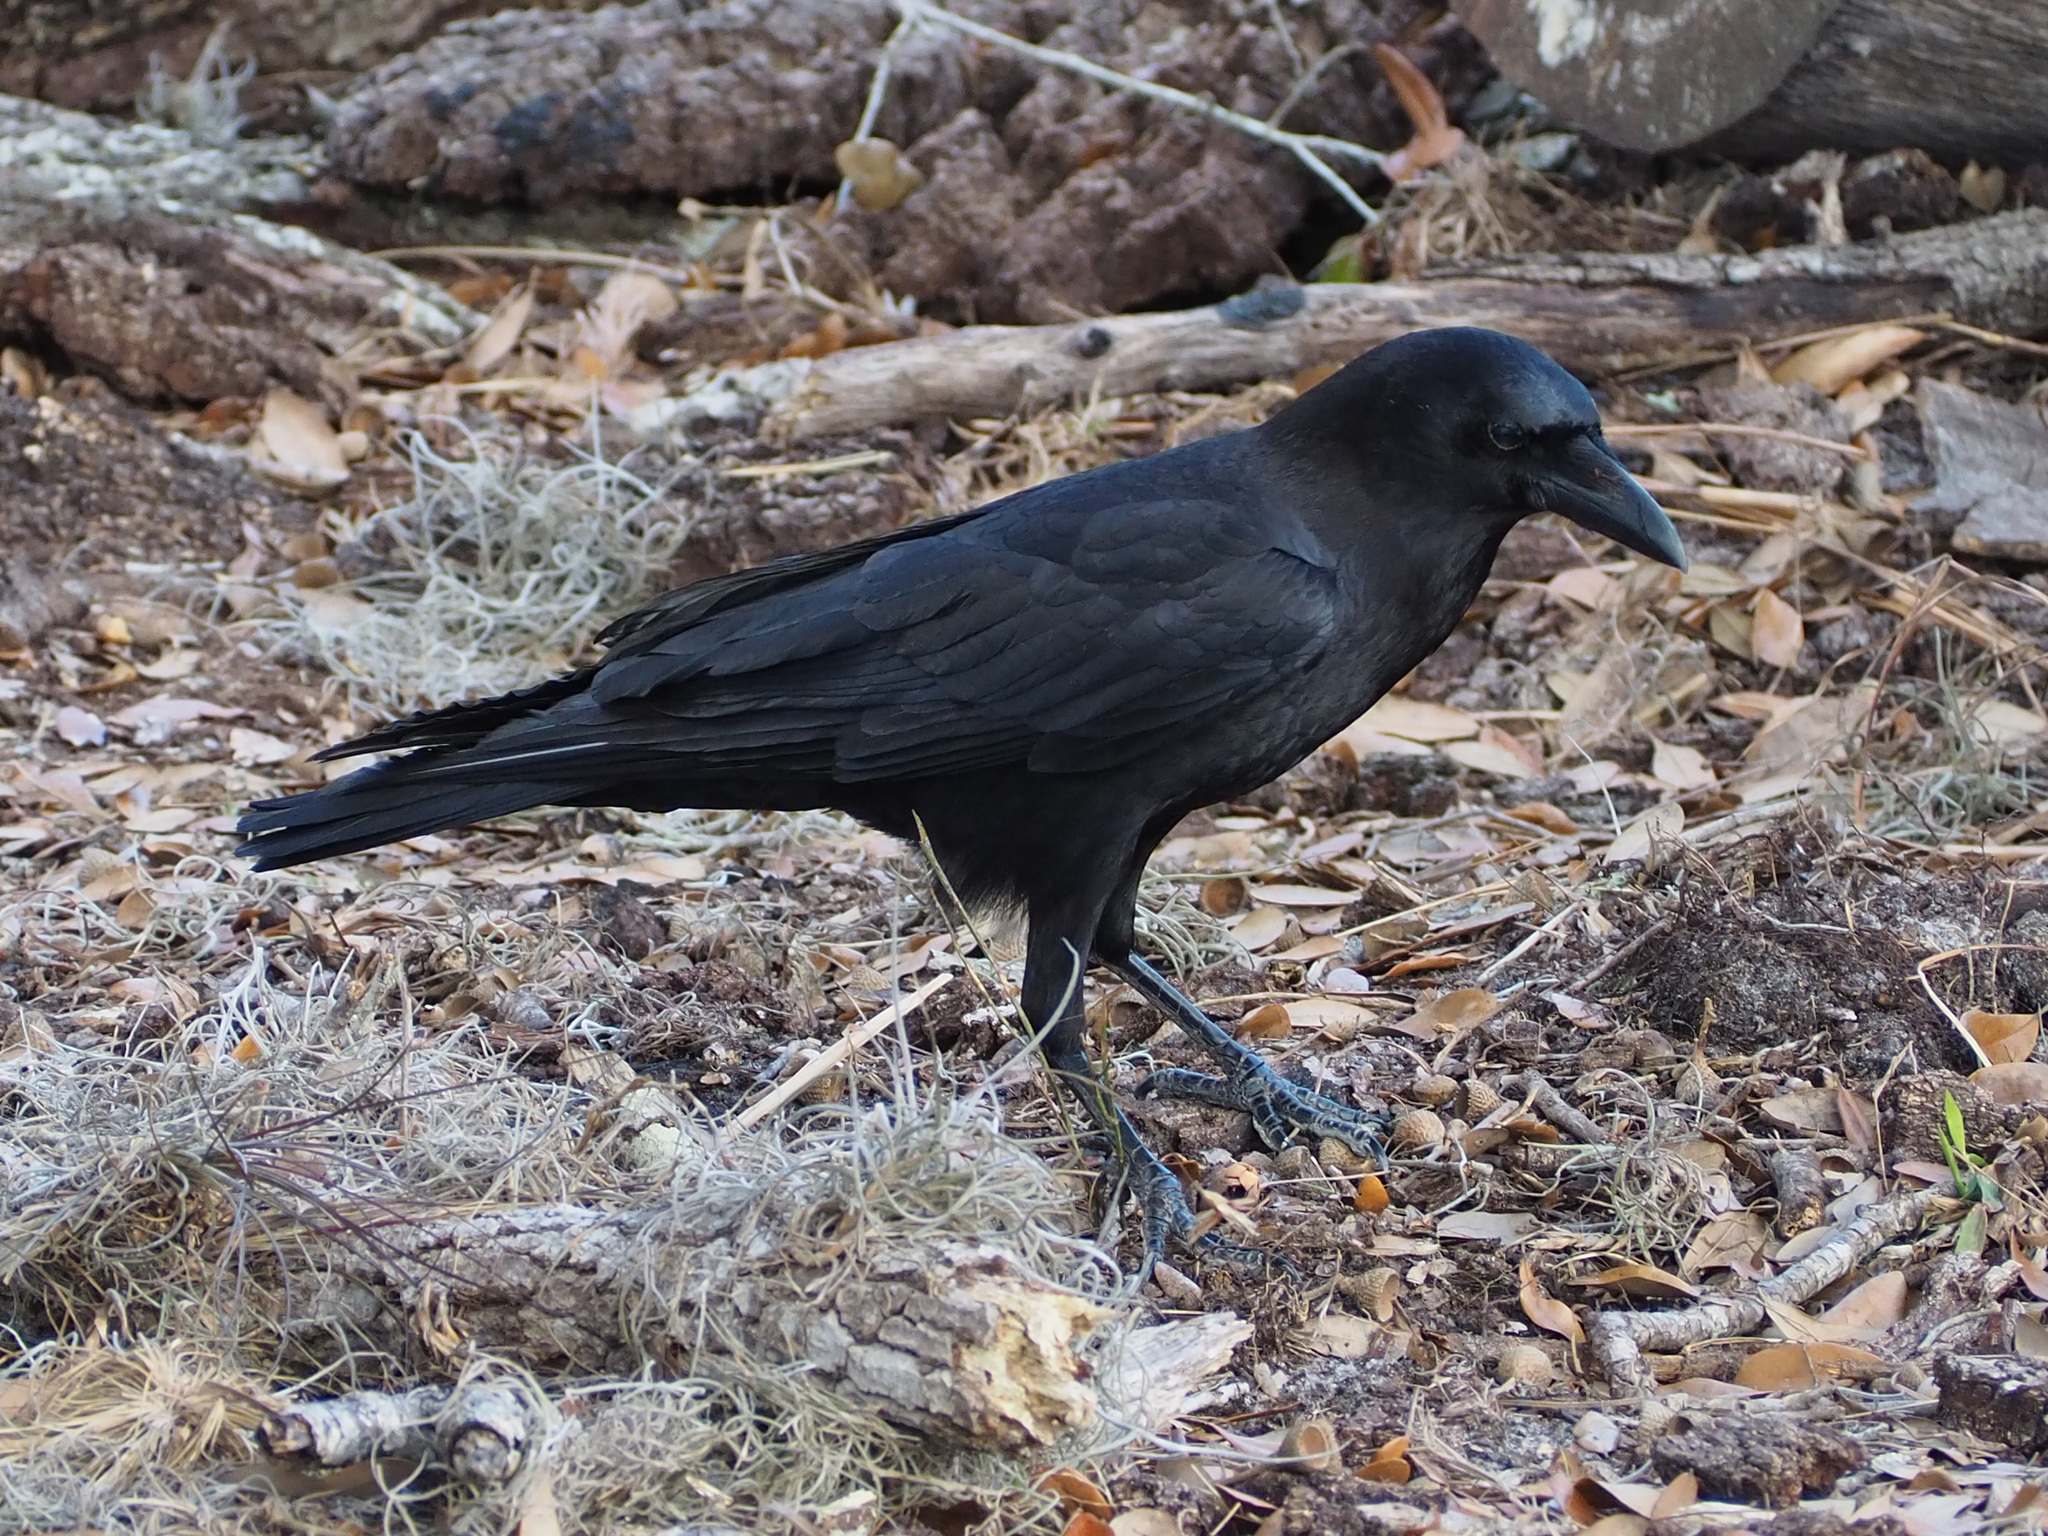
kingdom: Animalia
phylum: Chordata
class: Aves
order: Passeriformes
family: Corvidae
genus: Corvus
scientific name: Corvus
